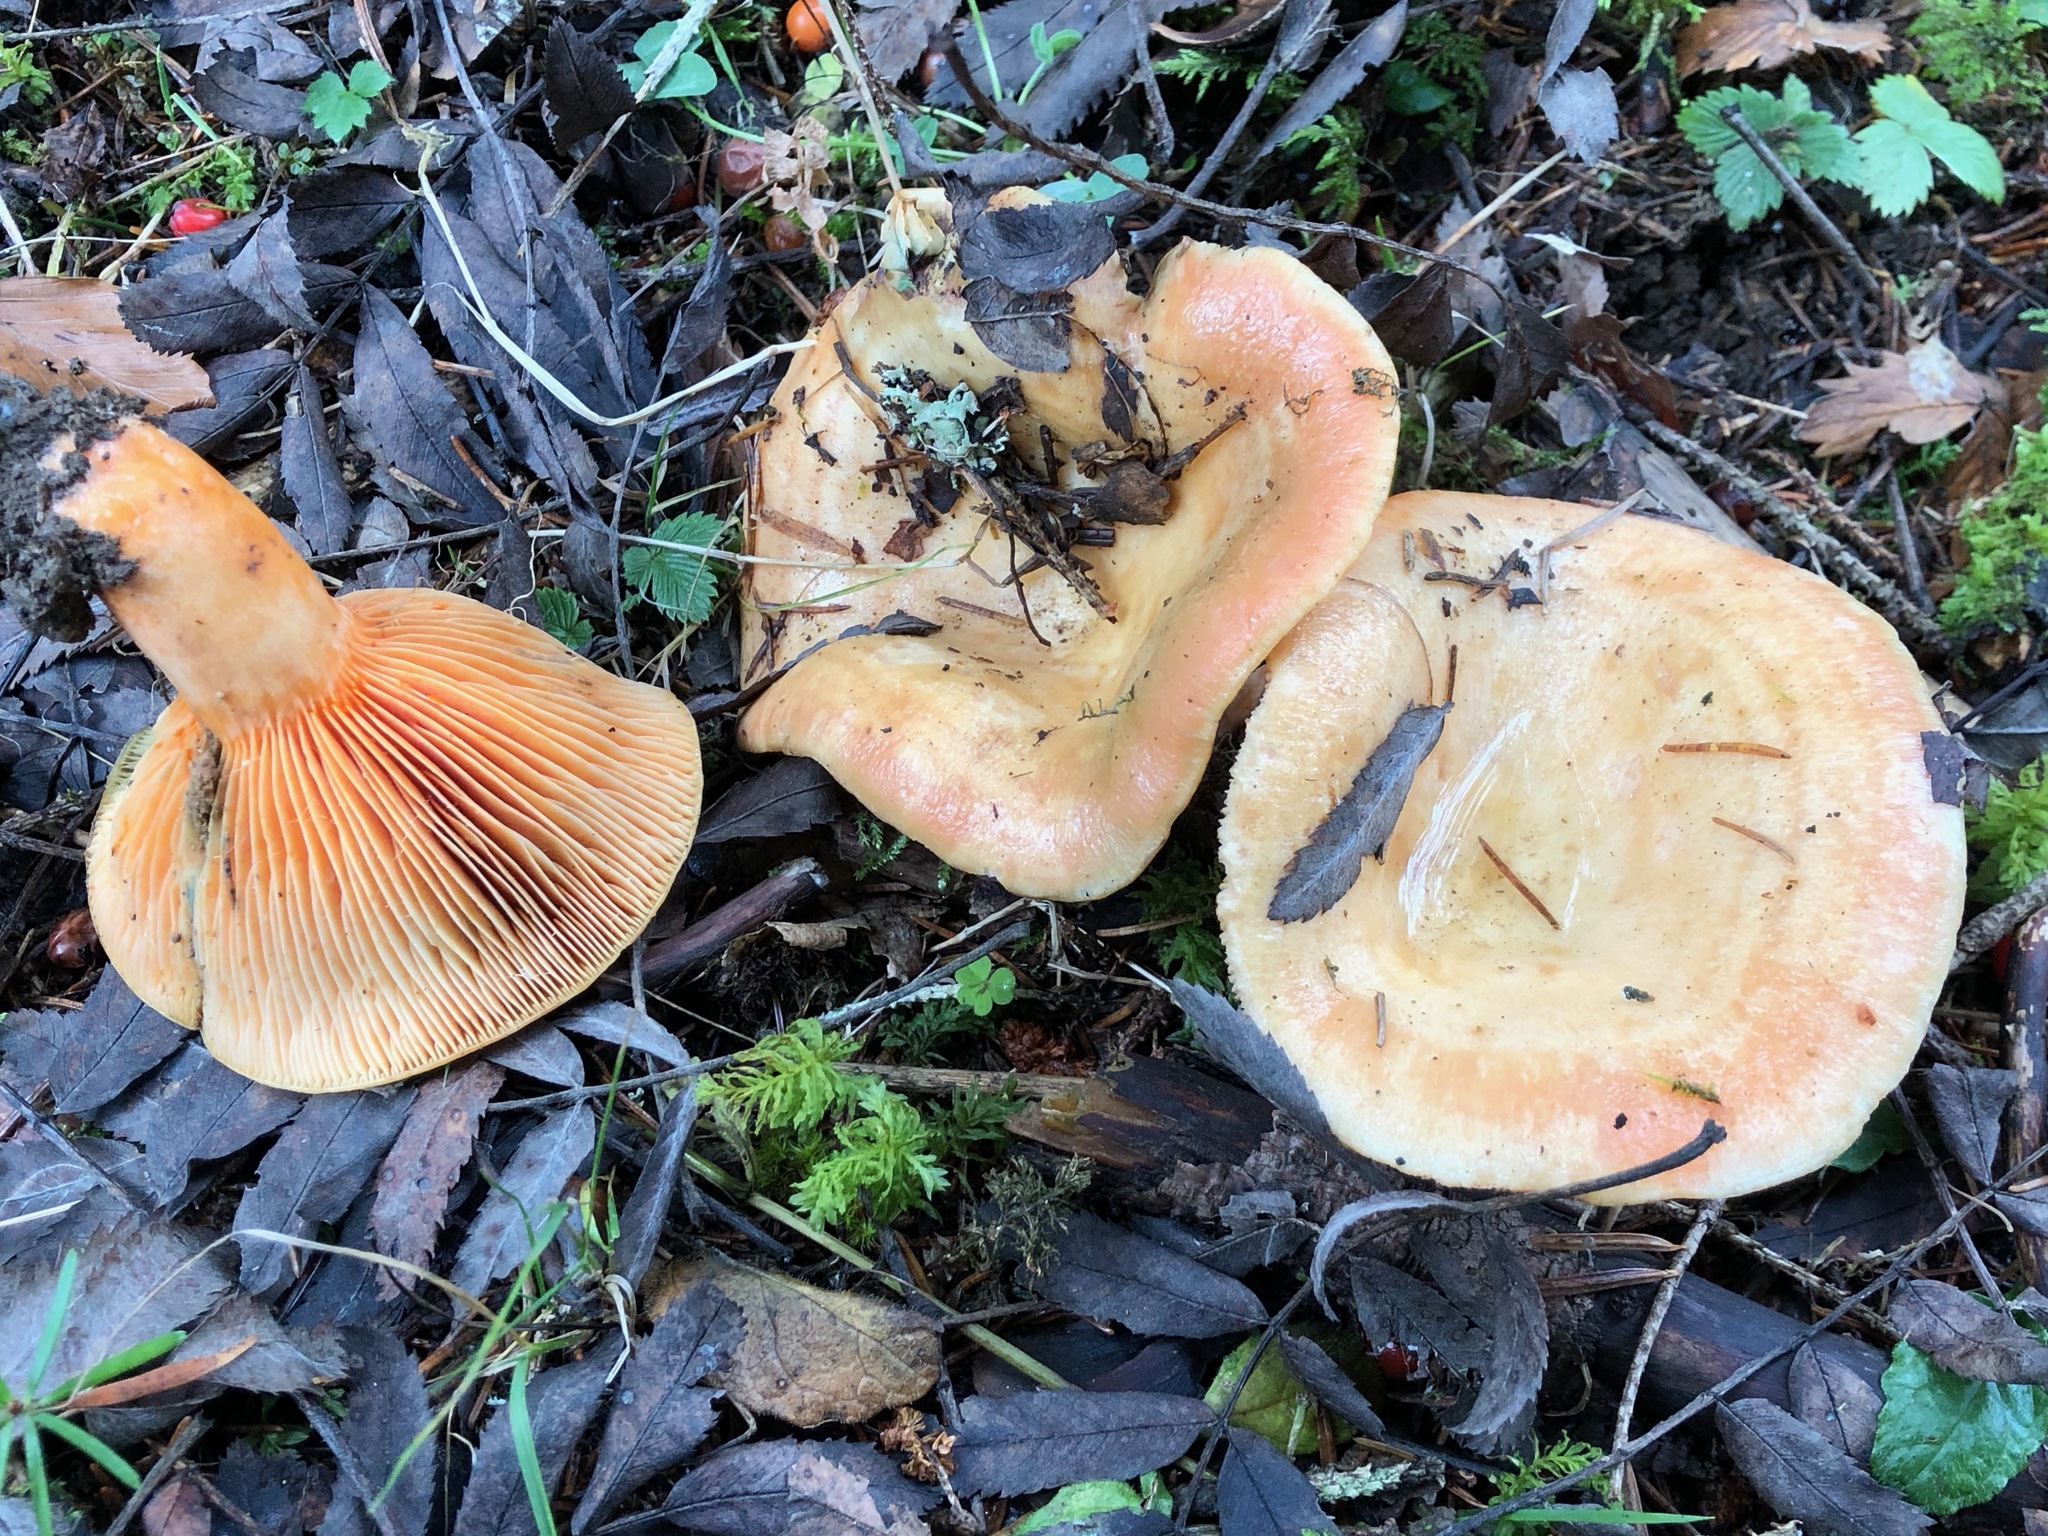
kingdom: Fungi
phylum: Basidiomycota
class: Agaricomycetes
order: Russulales
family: Russulaceae
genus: Lactarius
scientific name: Lactarius salmonicolor
